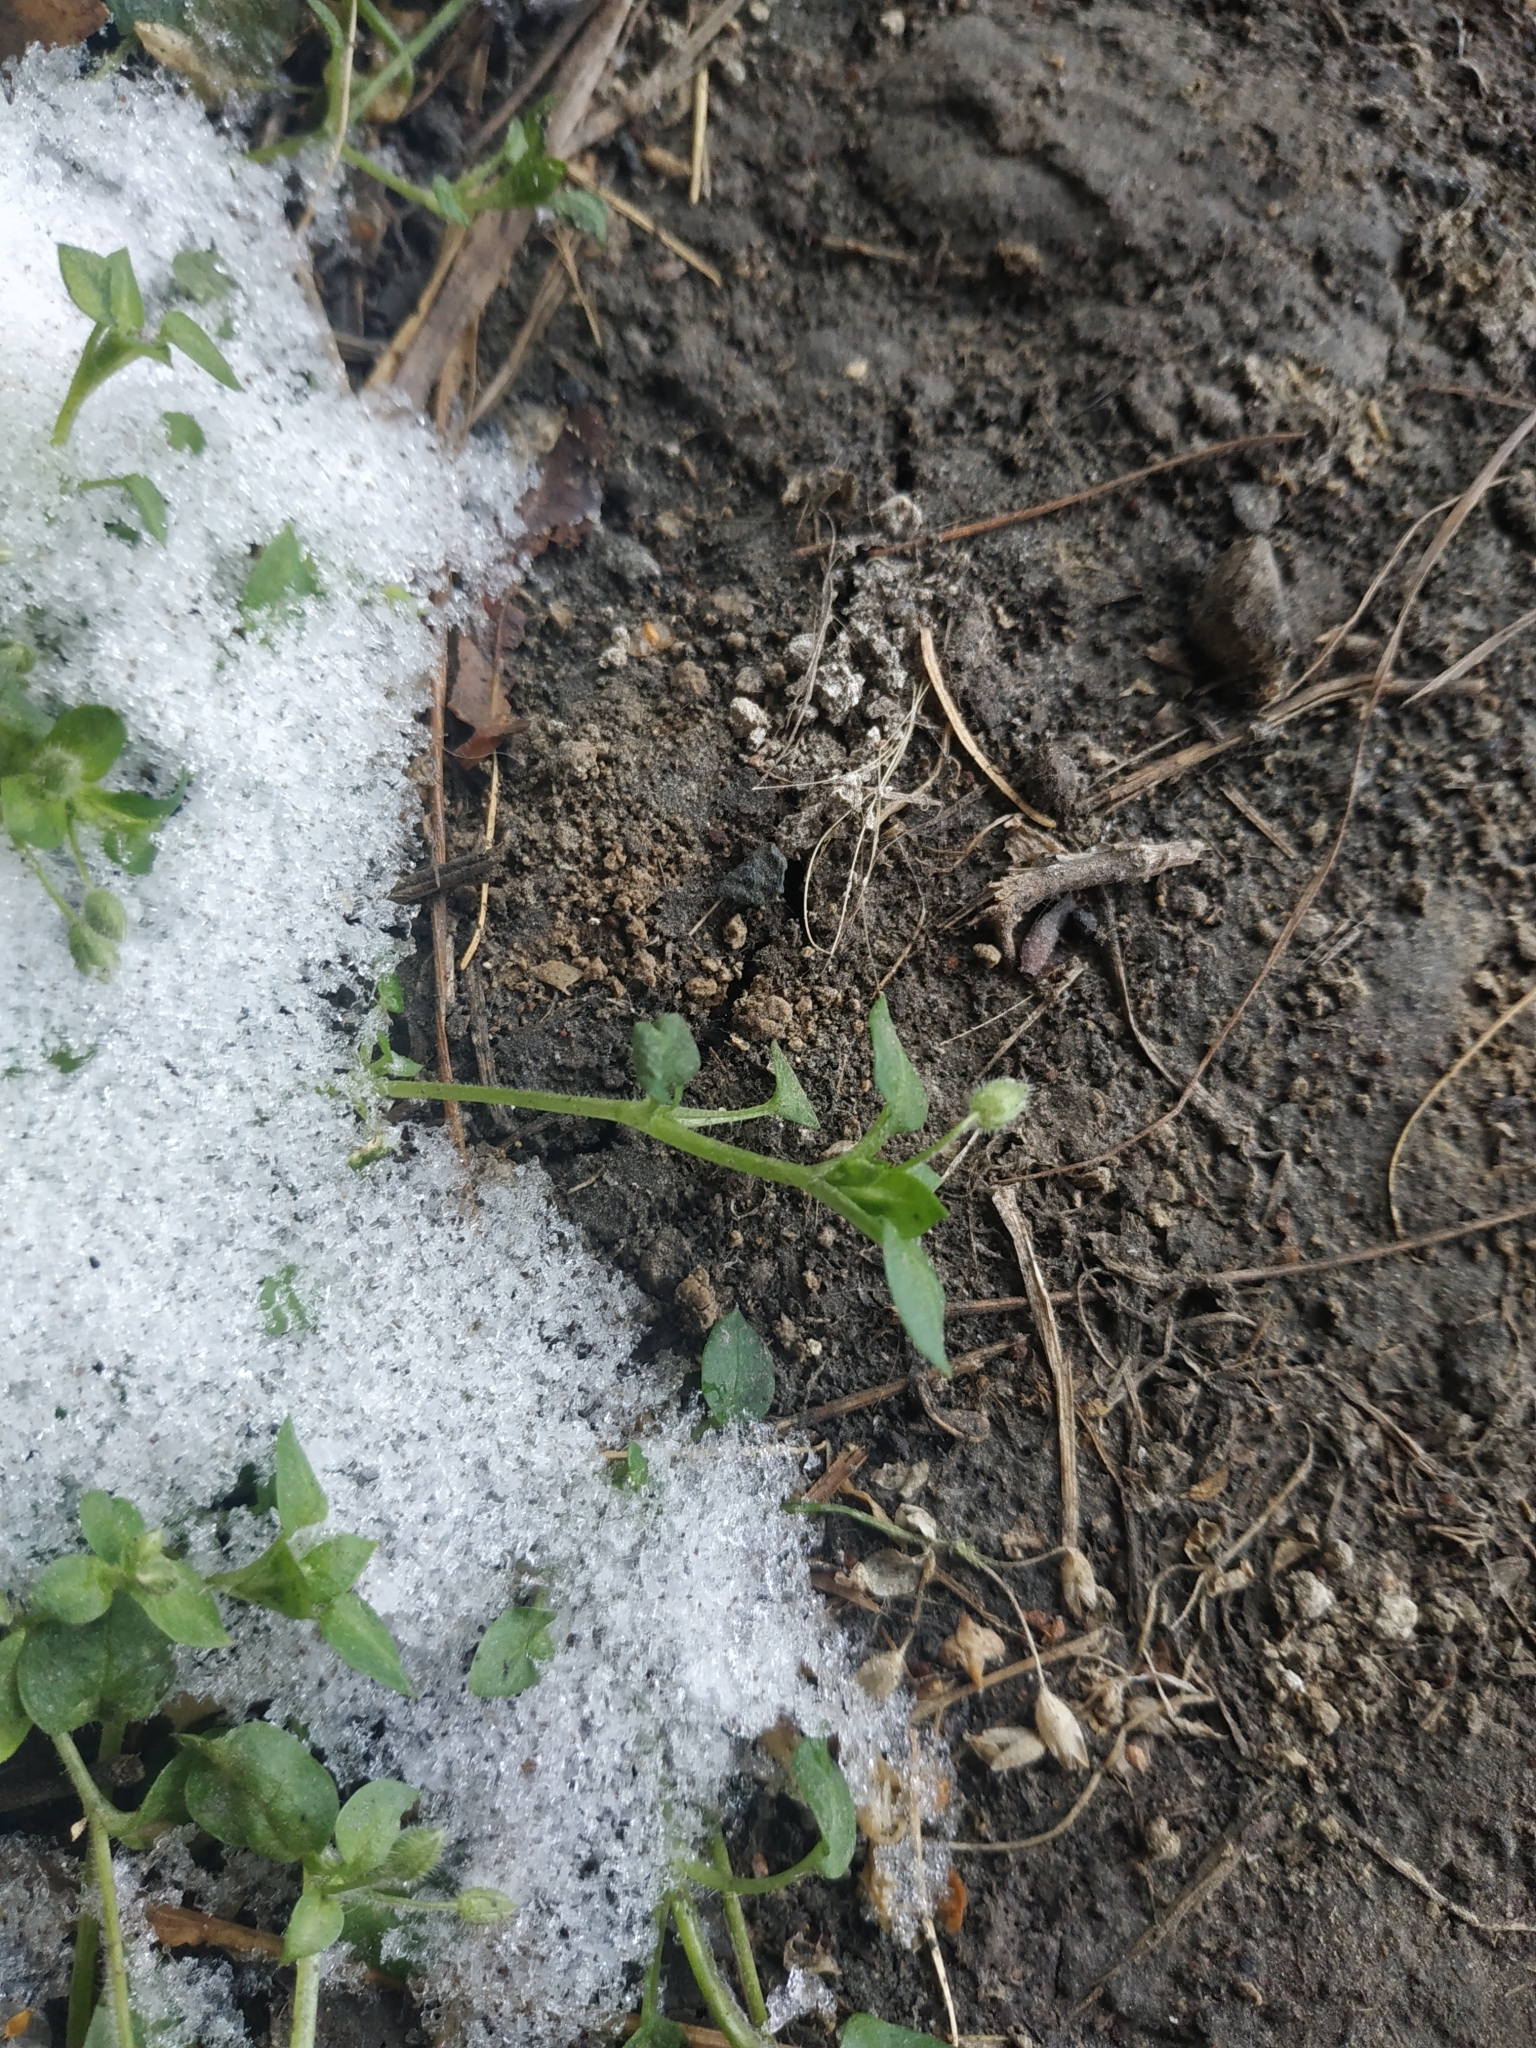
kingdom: Plantae
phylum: Tracheophyta
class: Magnoliopsida
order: Caryophyllales
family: Caryophyllaceae
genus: Stellaria
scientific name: Stellaria media
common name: Common chickweed
